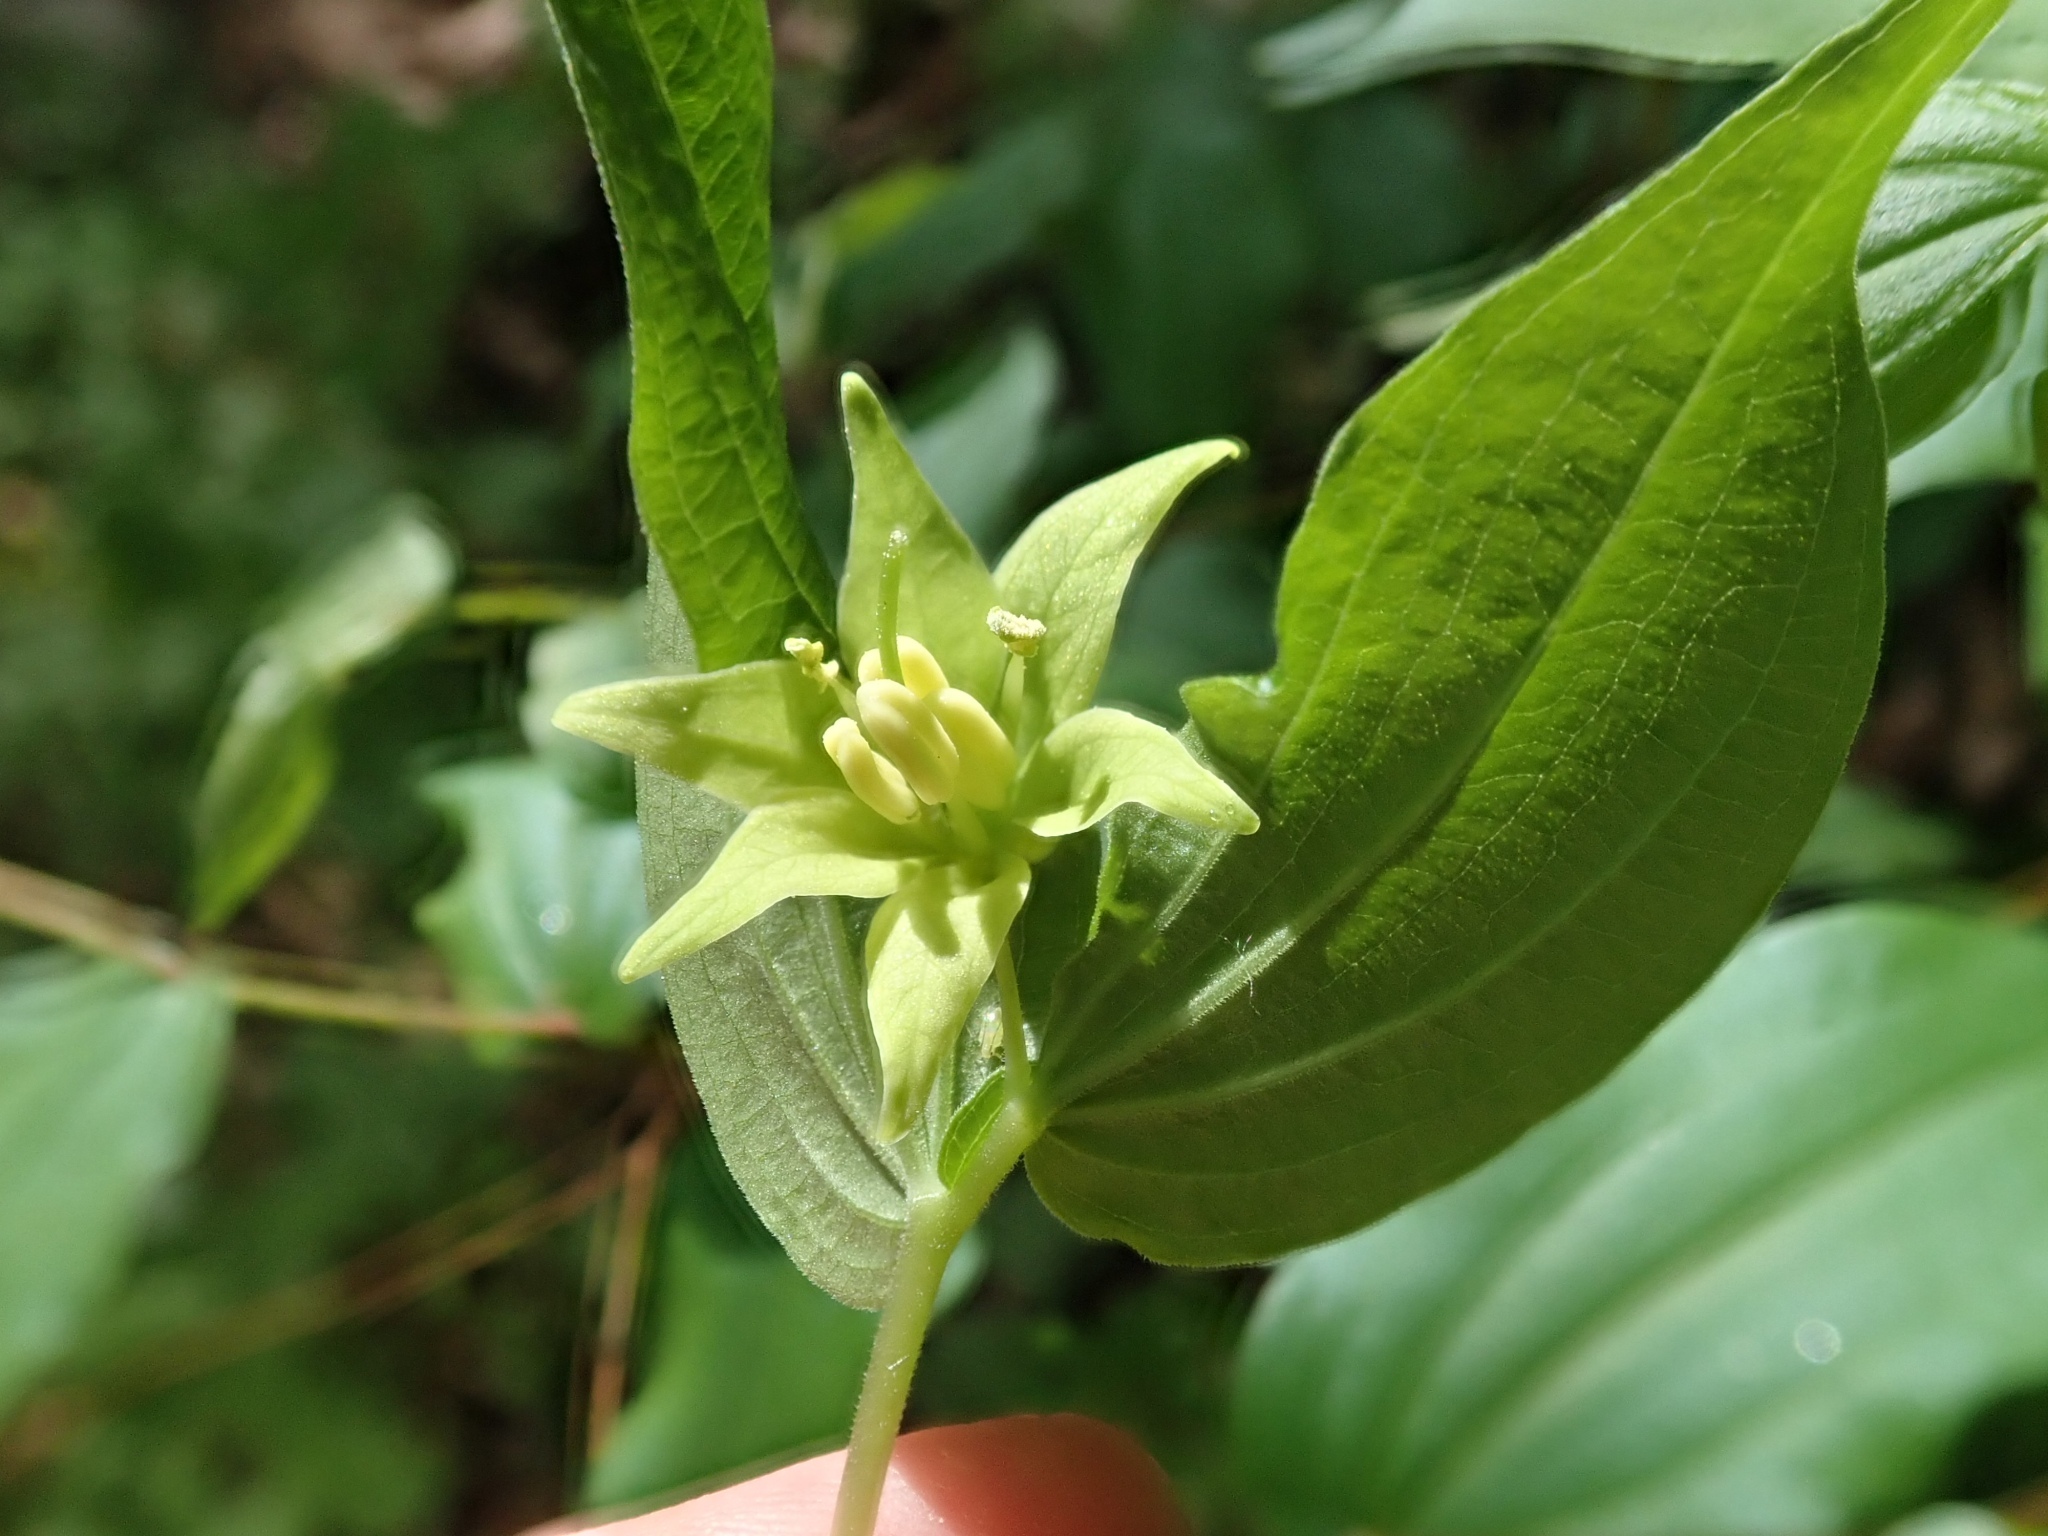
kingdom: Plantae
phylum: Tracheophyta
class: Liliopsida
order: Liliales
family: Liliaceae
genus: Prosartes
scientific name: Prosartes hookeri
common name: Fairy-bells
